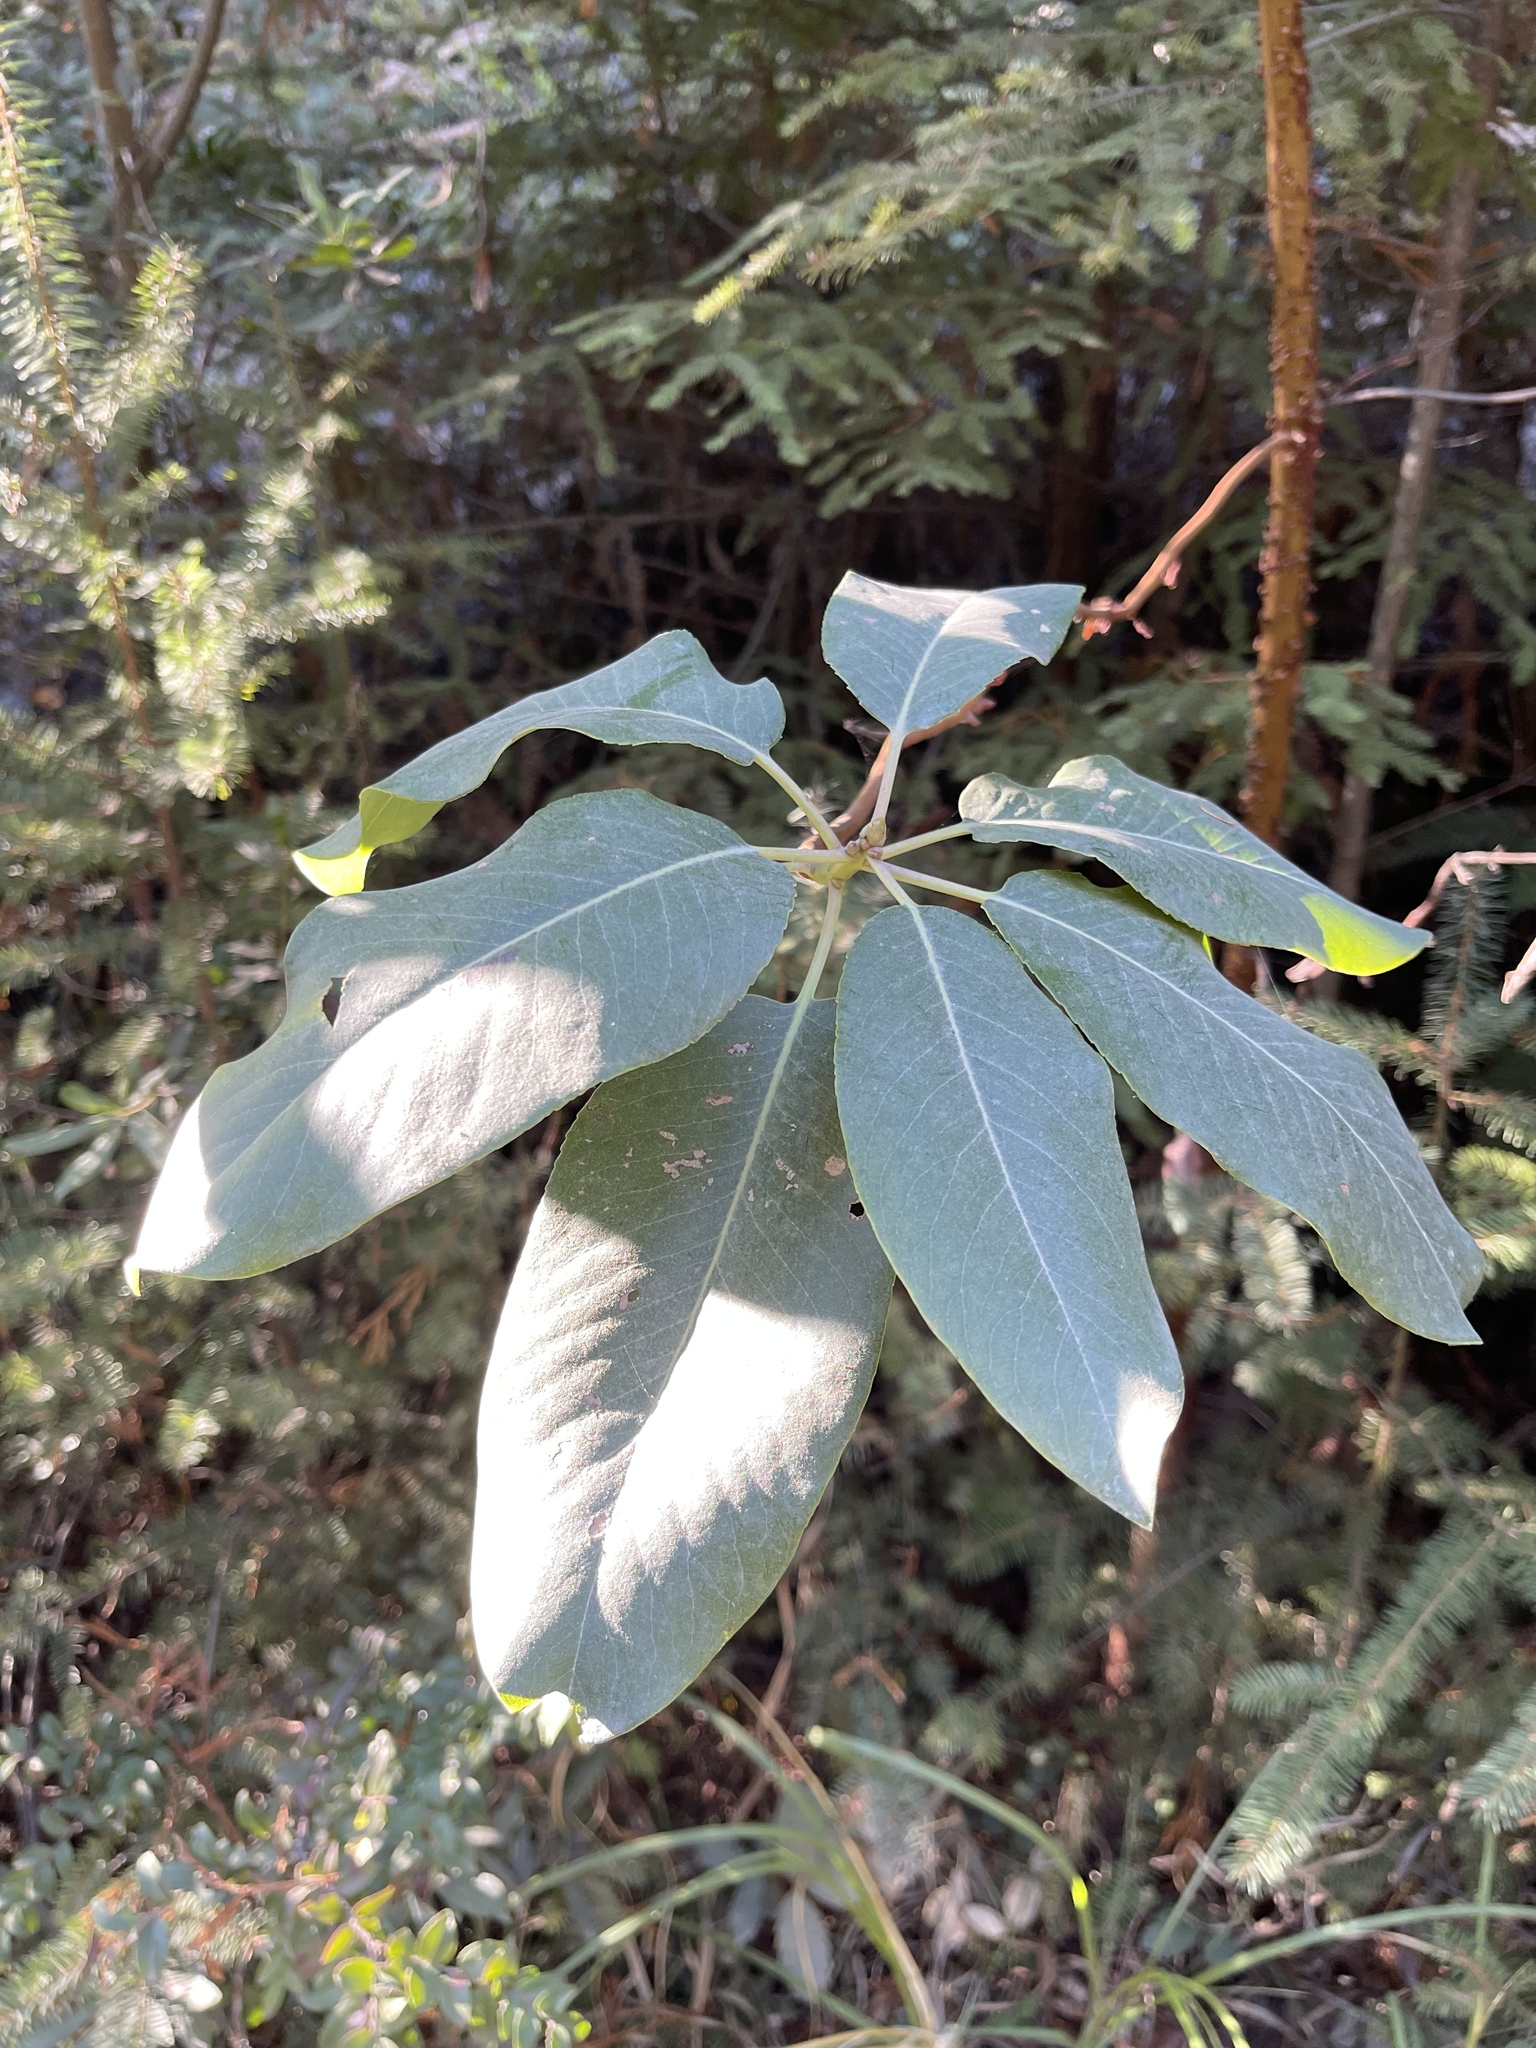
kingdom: Plantae
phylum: Tracheophyta
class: Magnoliopsida
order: Ericales
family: Ericaceae
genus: Arbutus
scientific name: Arbutus menziesii
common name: Pacific madrone
